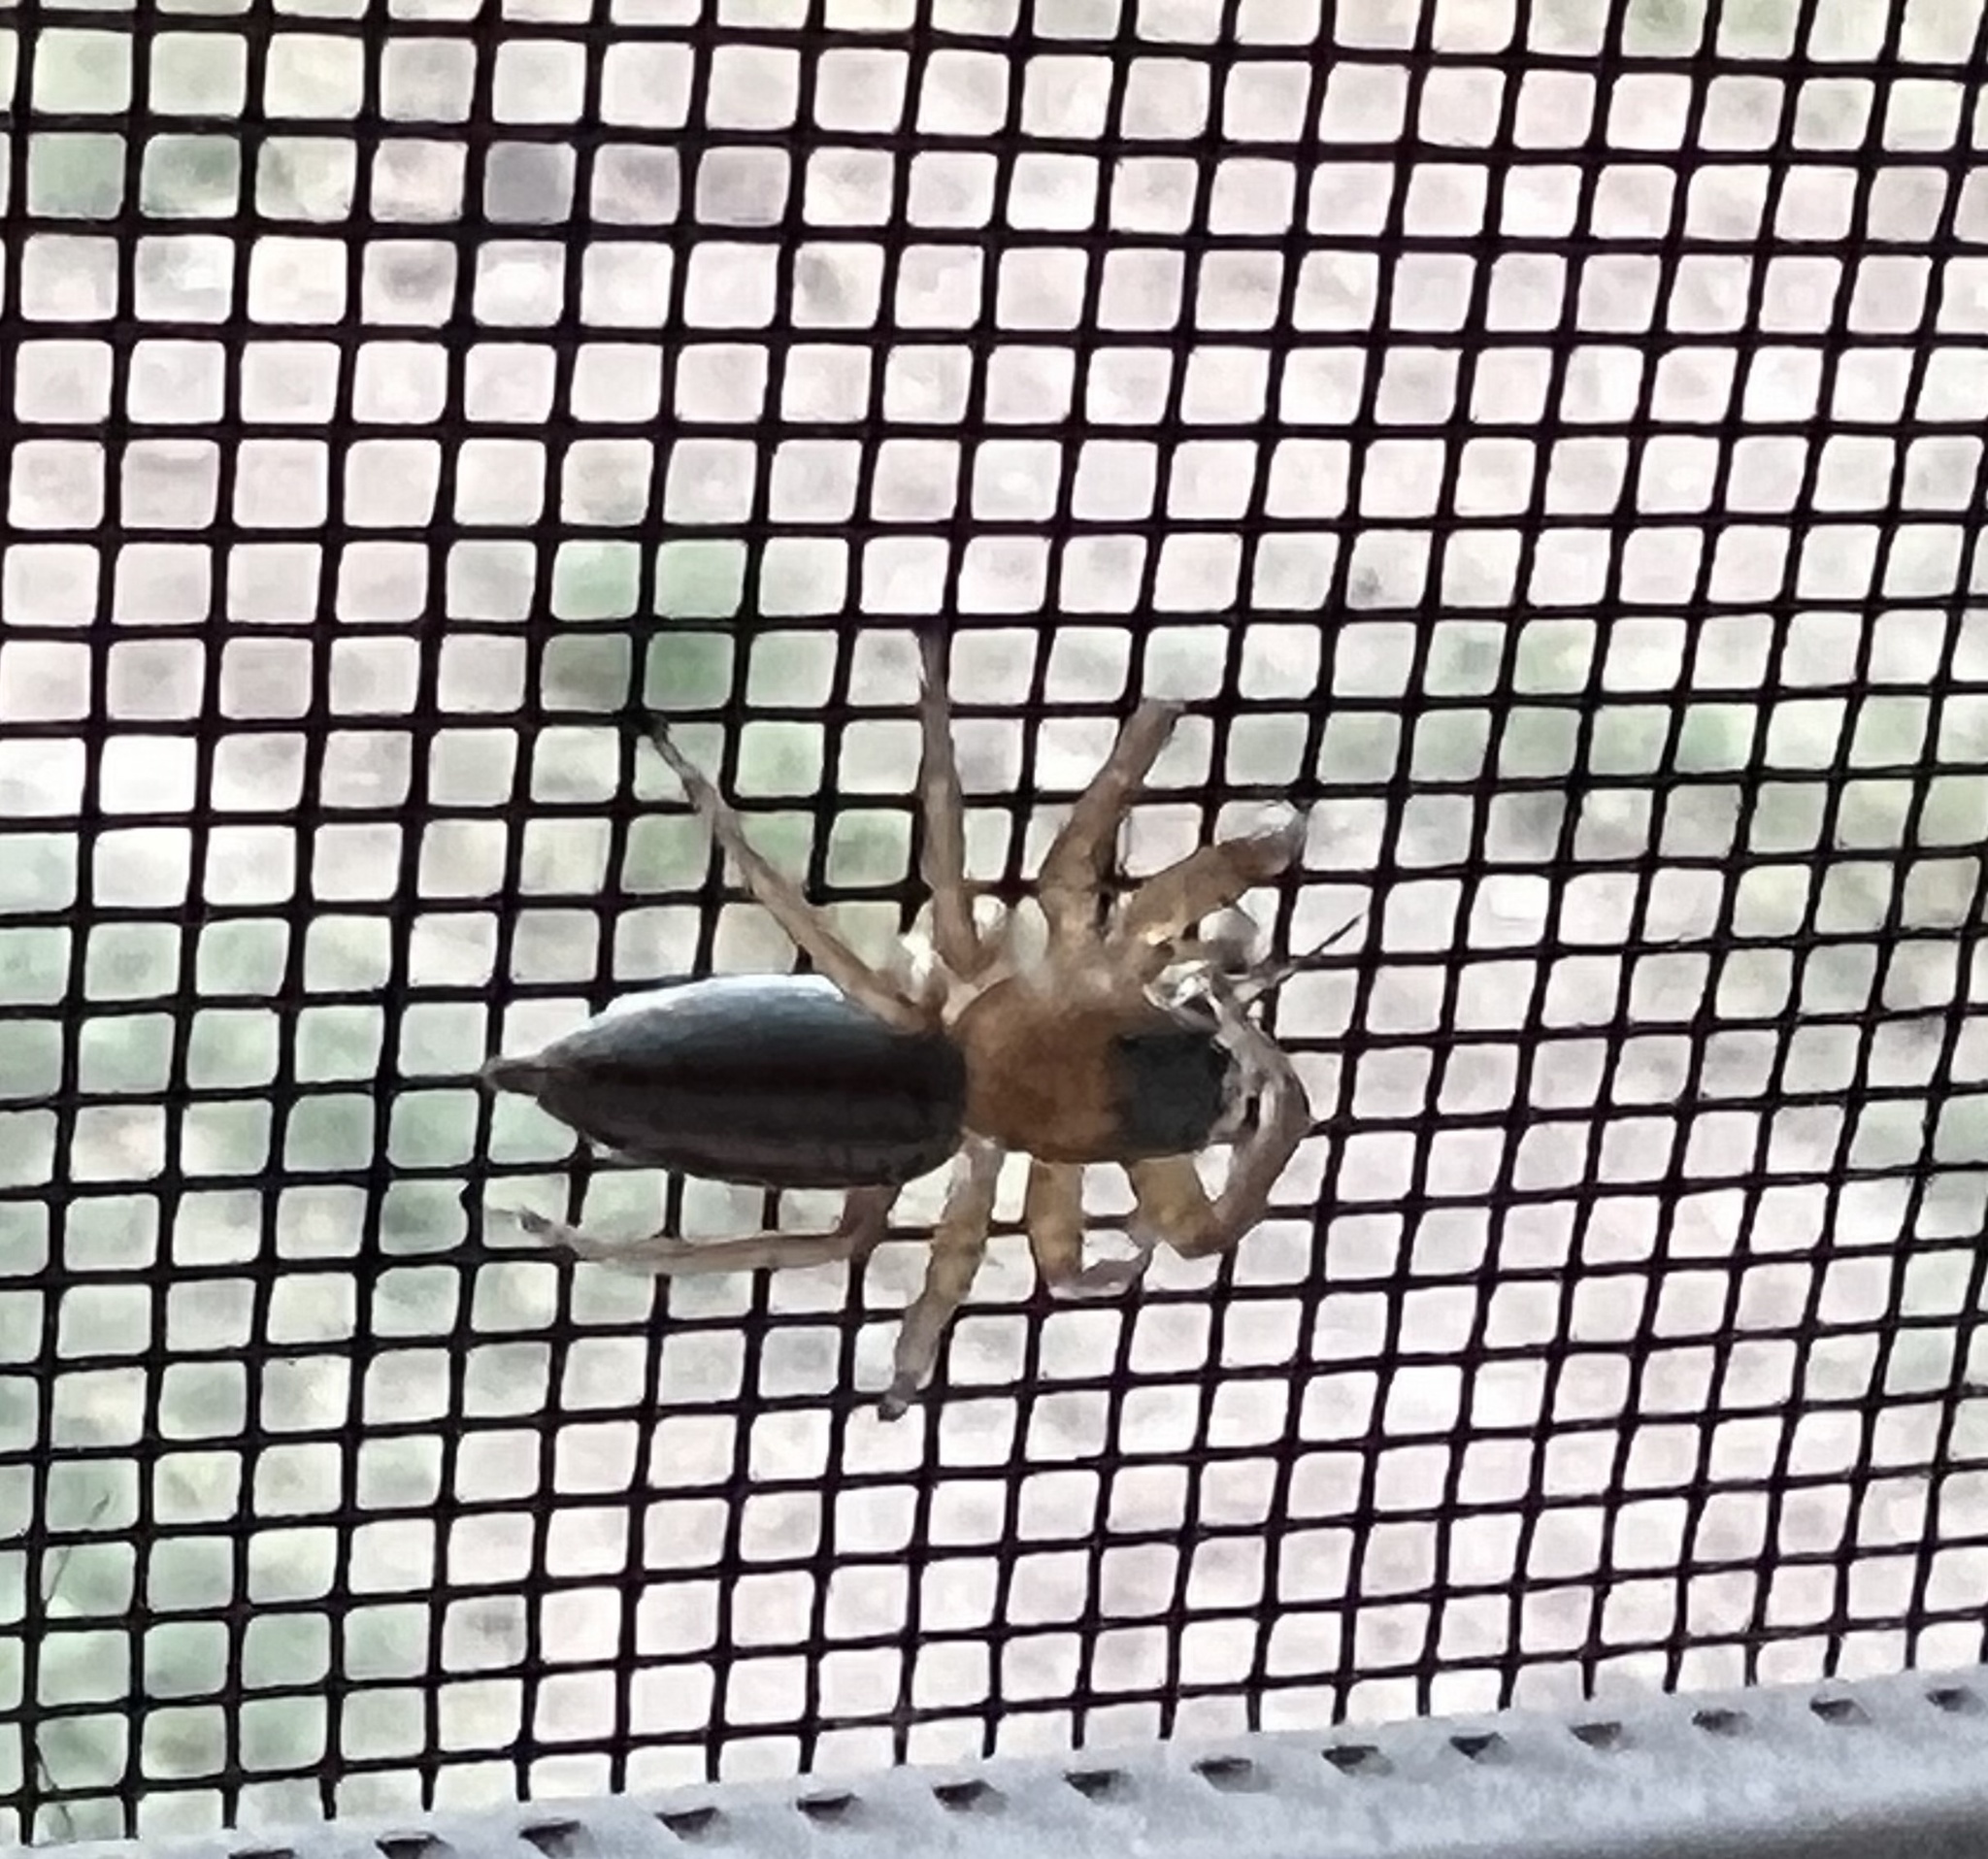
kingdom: Animalia
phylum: Arthropoda
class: Arachnida
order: Araneae
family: Salticidae
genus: Paramaevia
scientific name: Paramaevia poultoni
